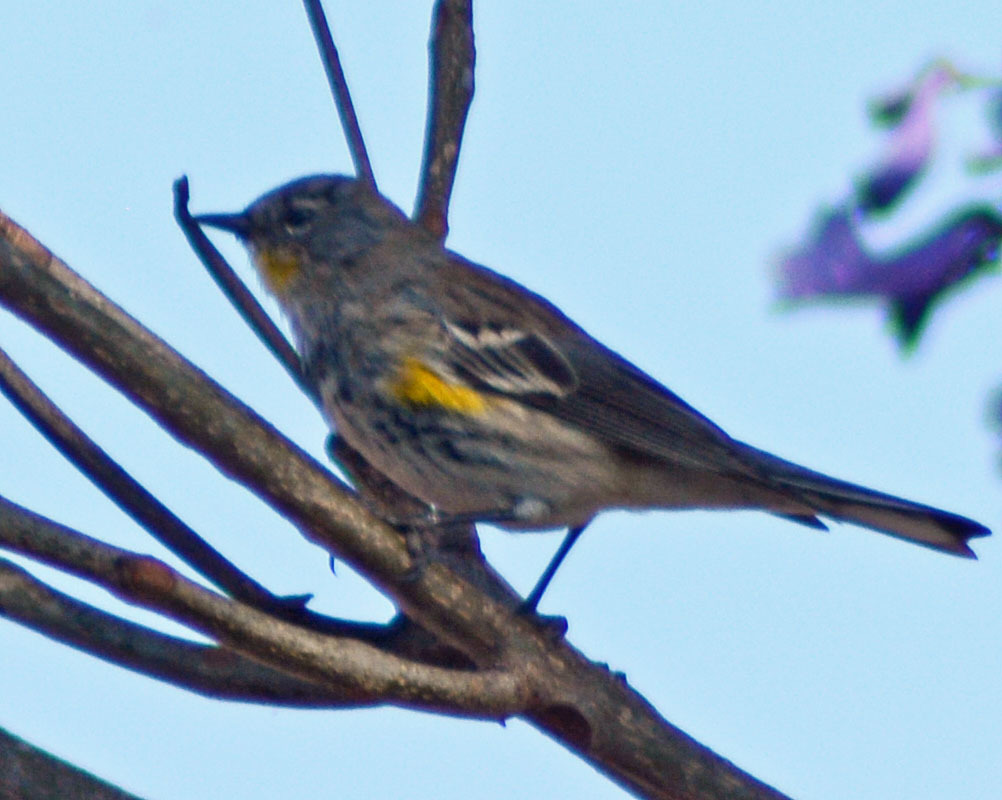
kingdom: Animalia
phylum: Chordata
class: Aves
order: Passeriformes
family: Parulidae
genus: Setophaga
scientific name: Setophaga auduboni
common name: Audubon's warbler
